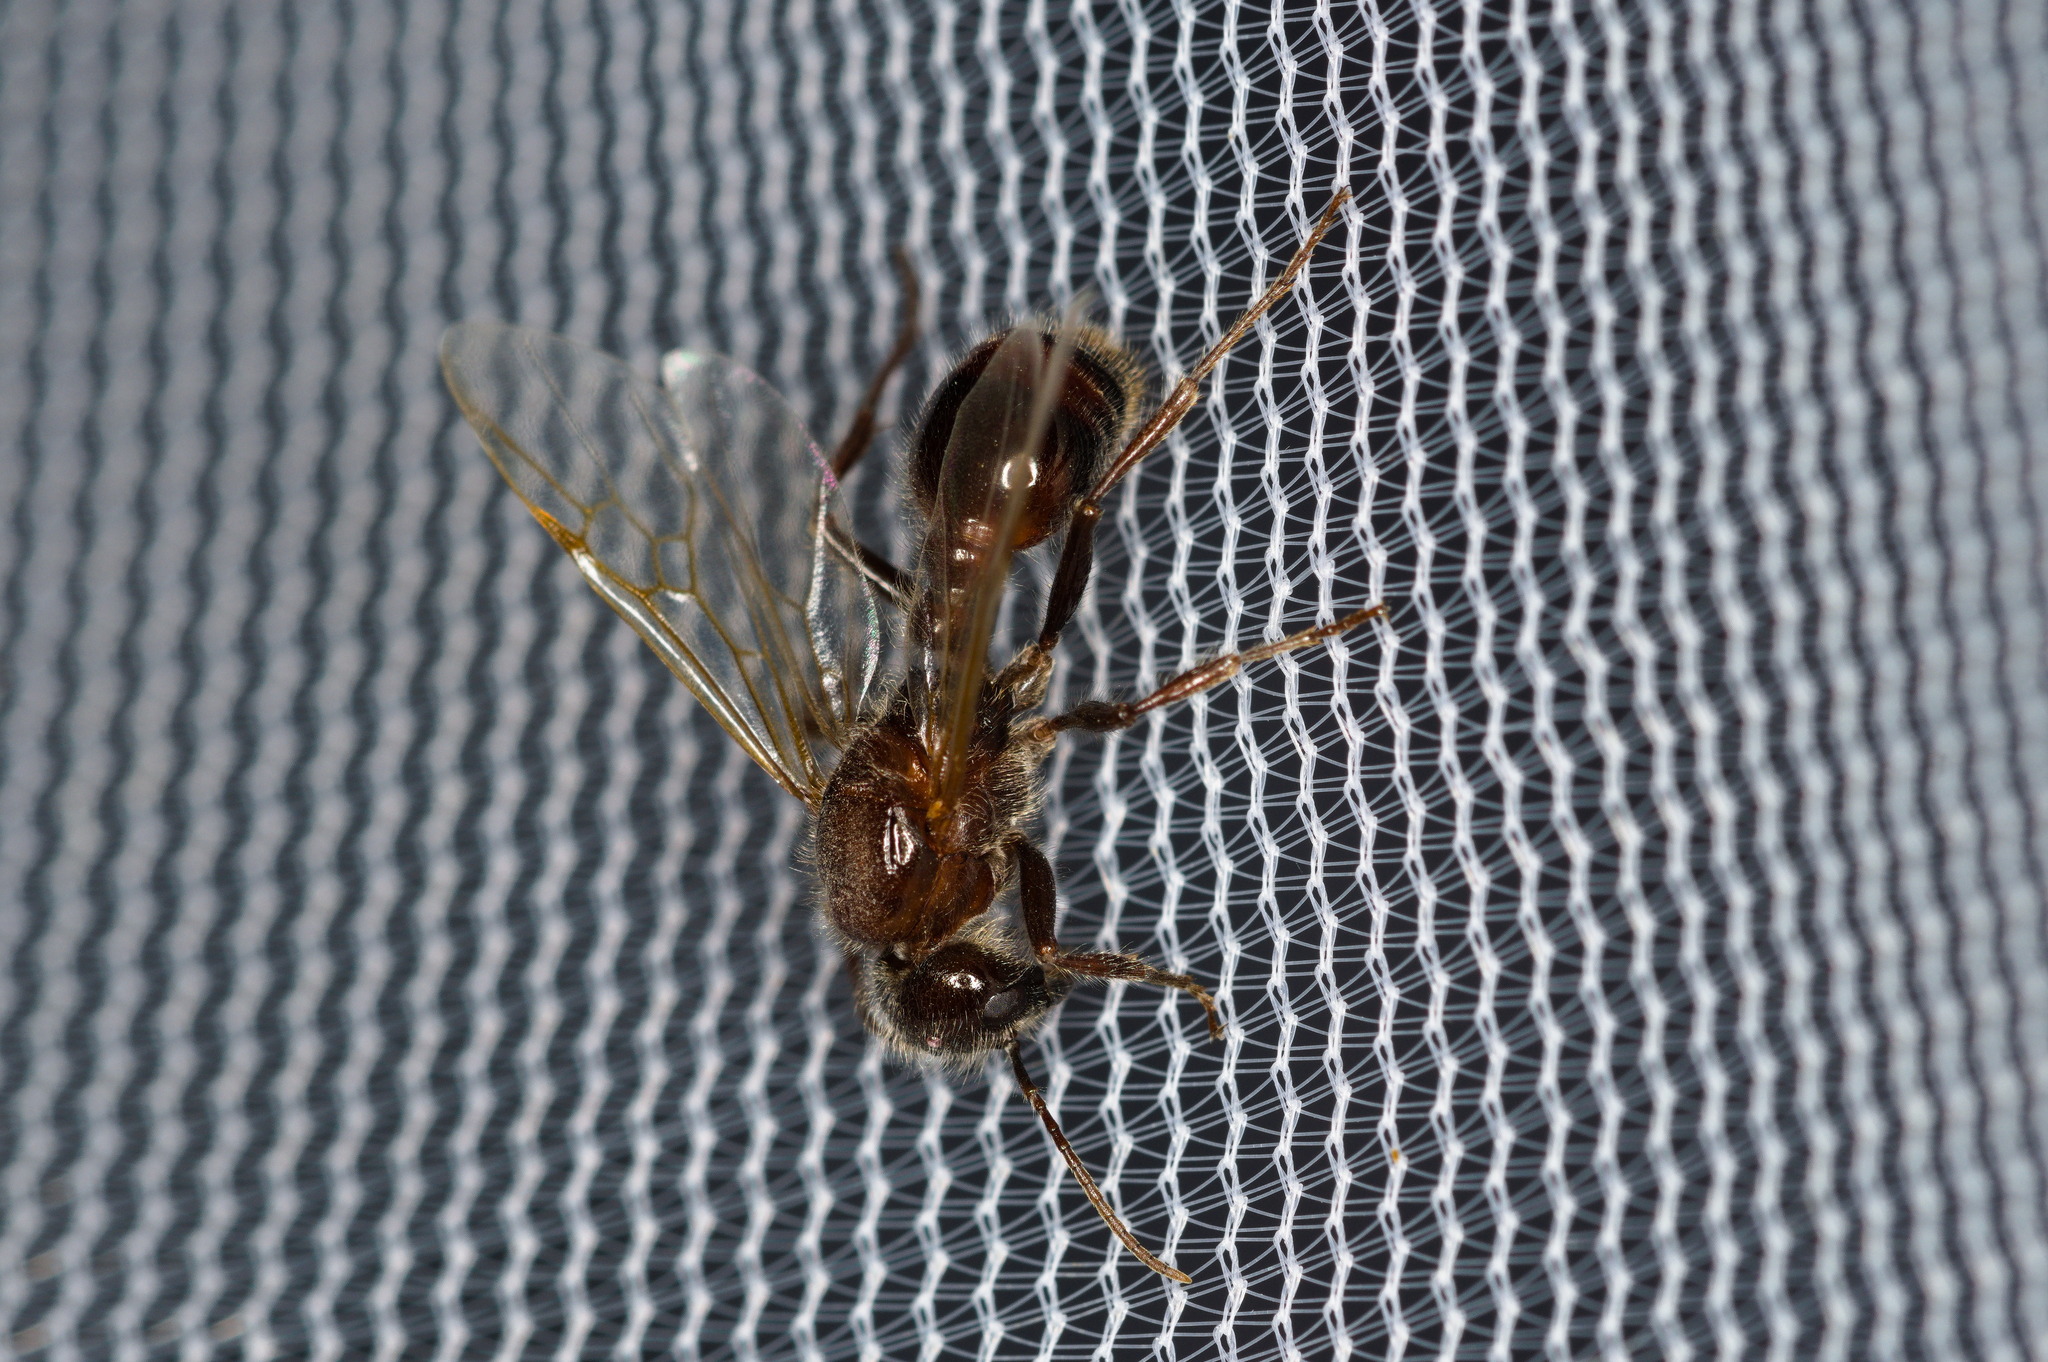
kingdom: Animalia
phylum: Arthropoda
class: Insecta
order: Hymenoptera
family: Formicidae
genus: Pogonomyrmex
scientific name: Pogonomyrmex rugosus
